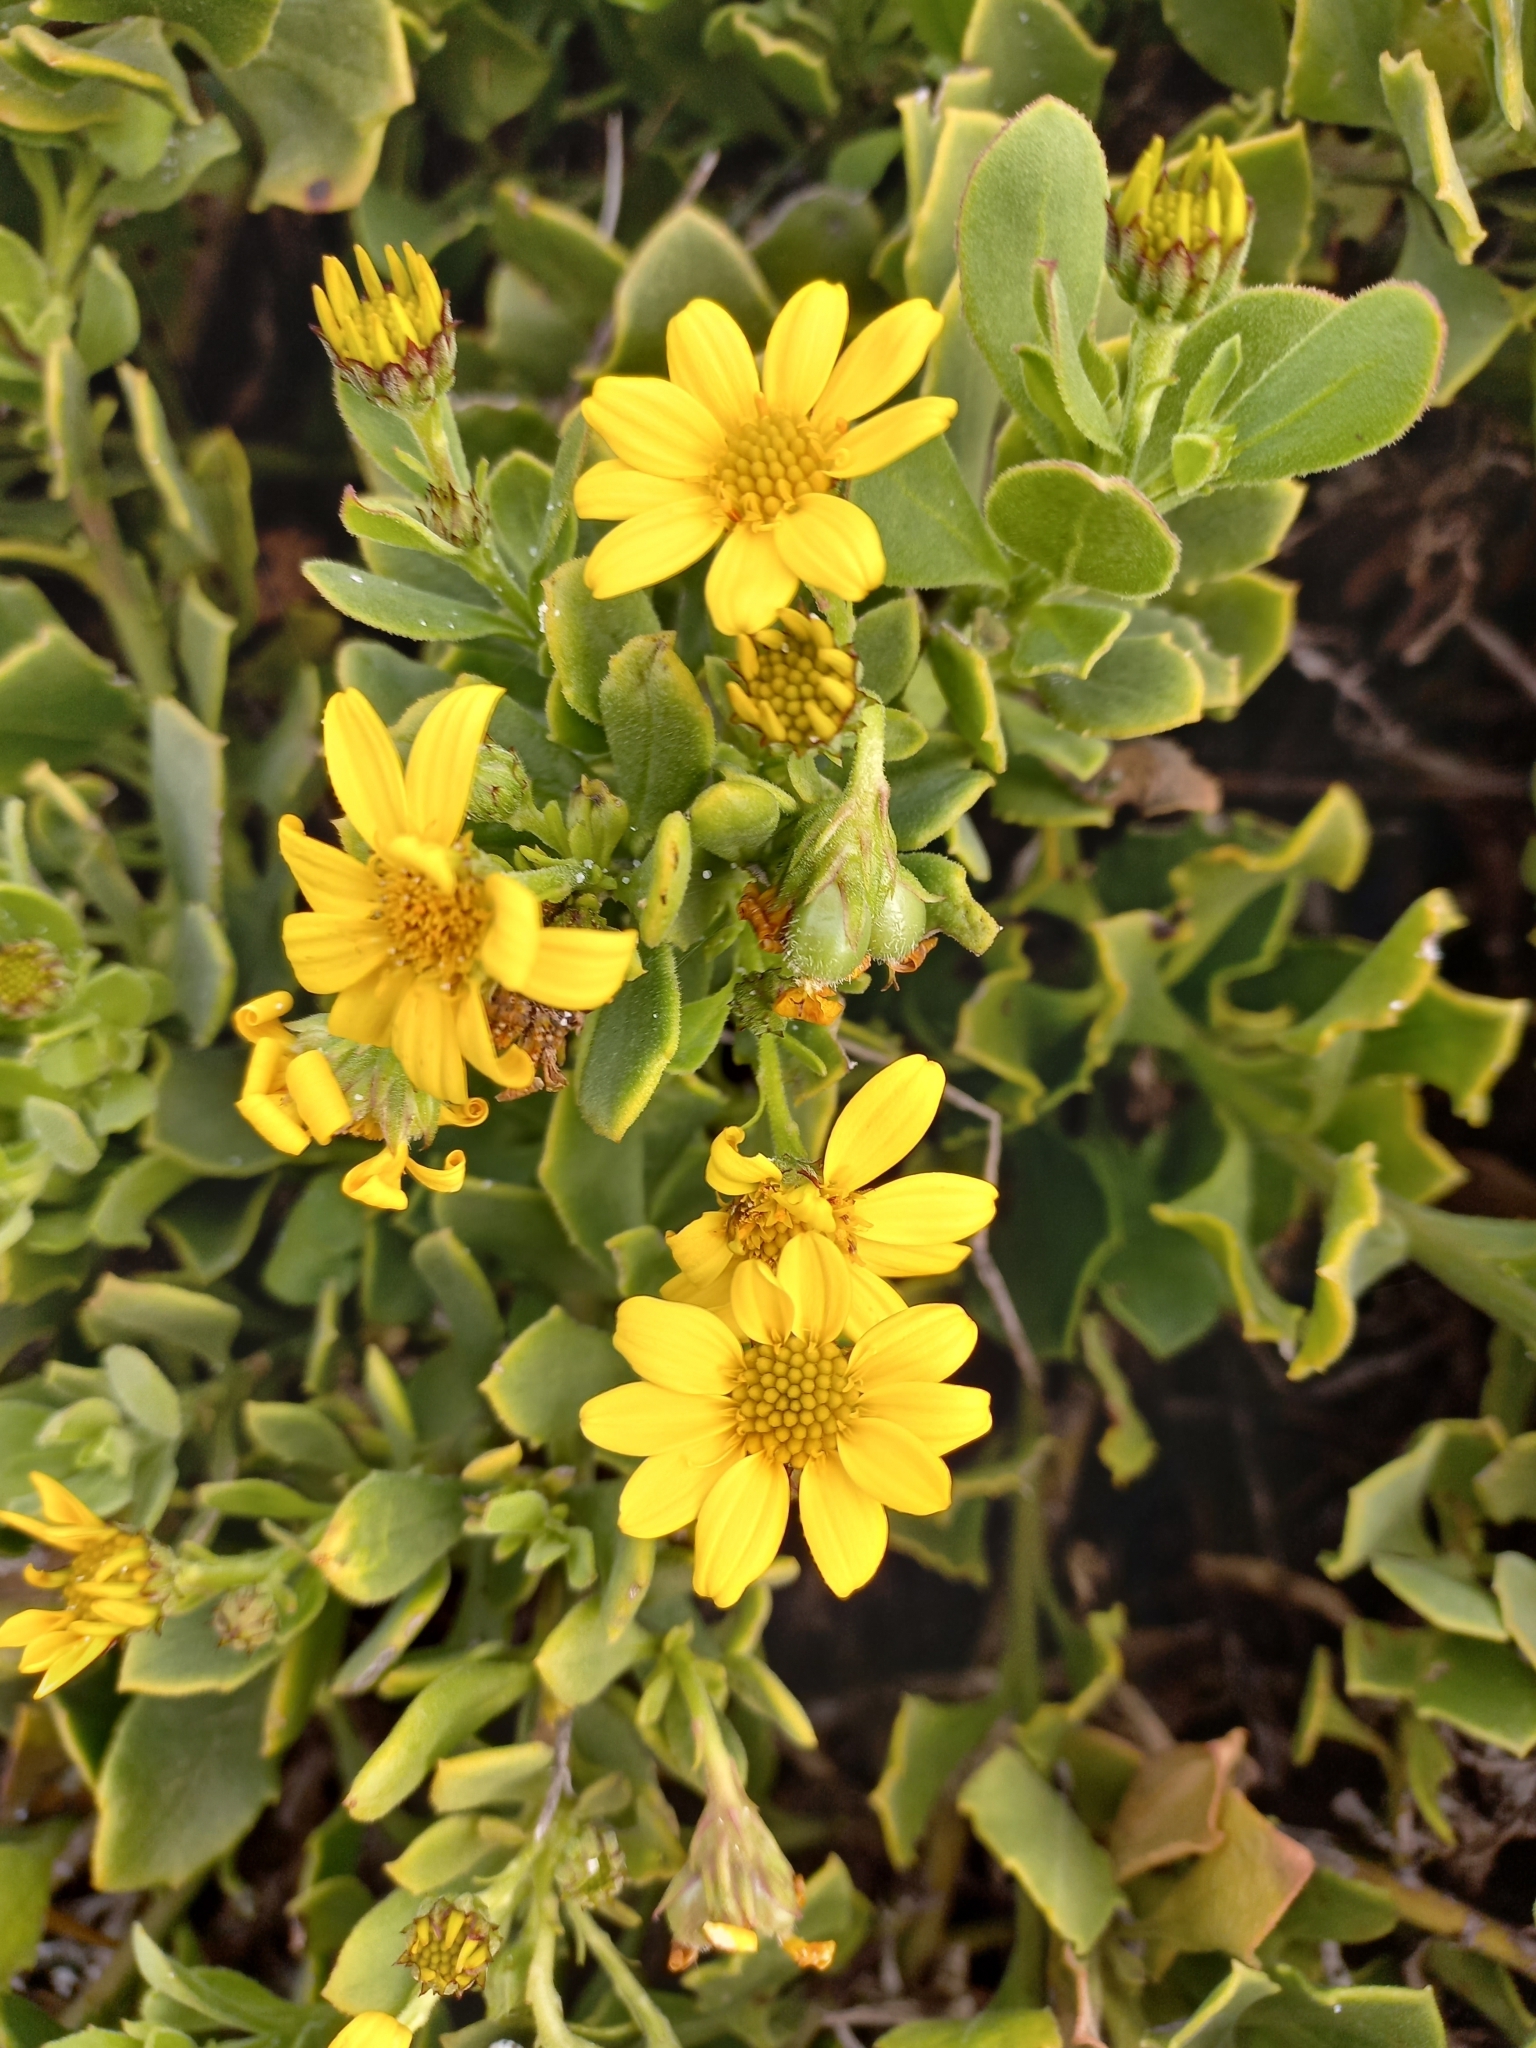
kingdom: Plantae
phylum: Tracheophyta
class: Magnoliopsida
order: Asterales
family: Asteraceae
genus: Osteospermum
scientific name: Osteospermum moniliferum
